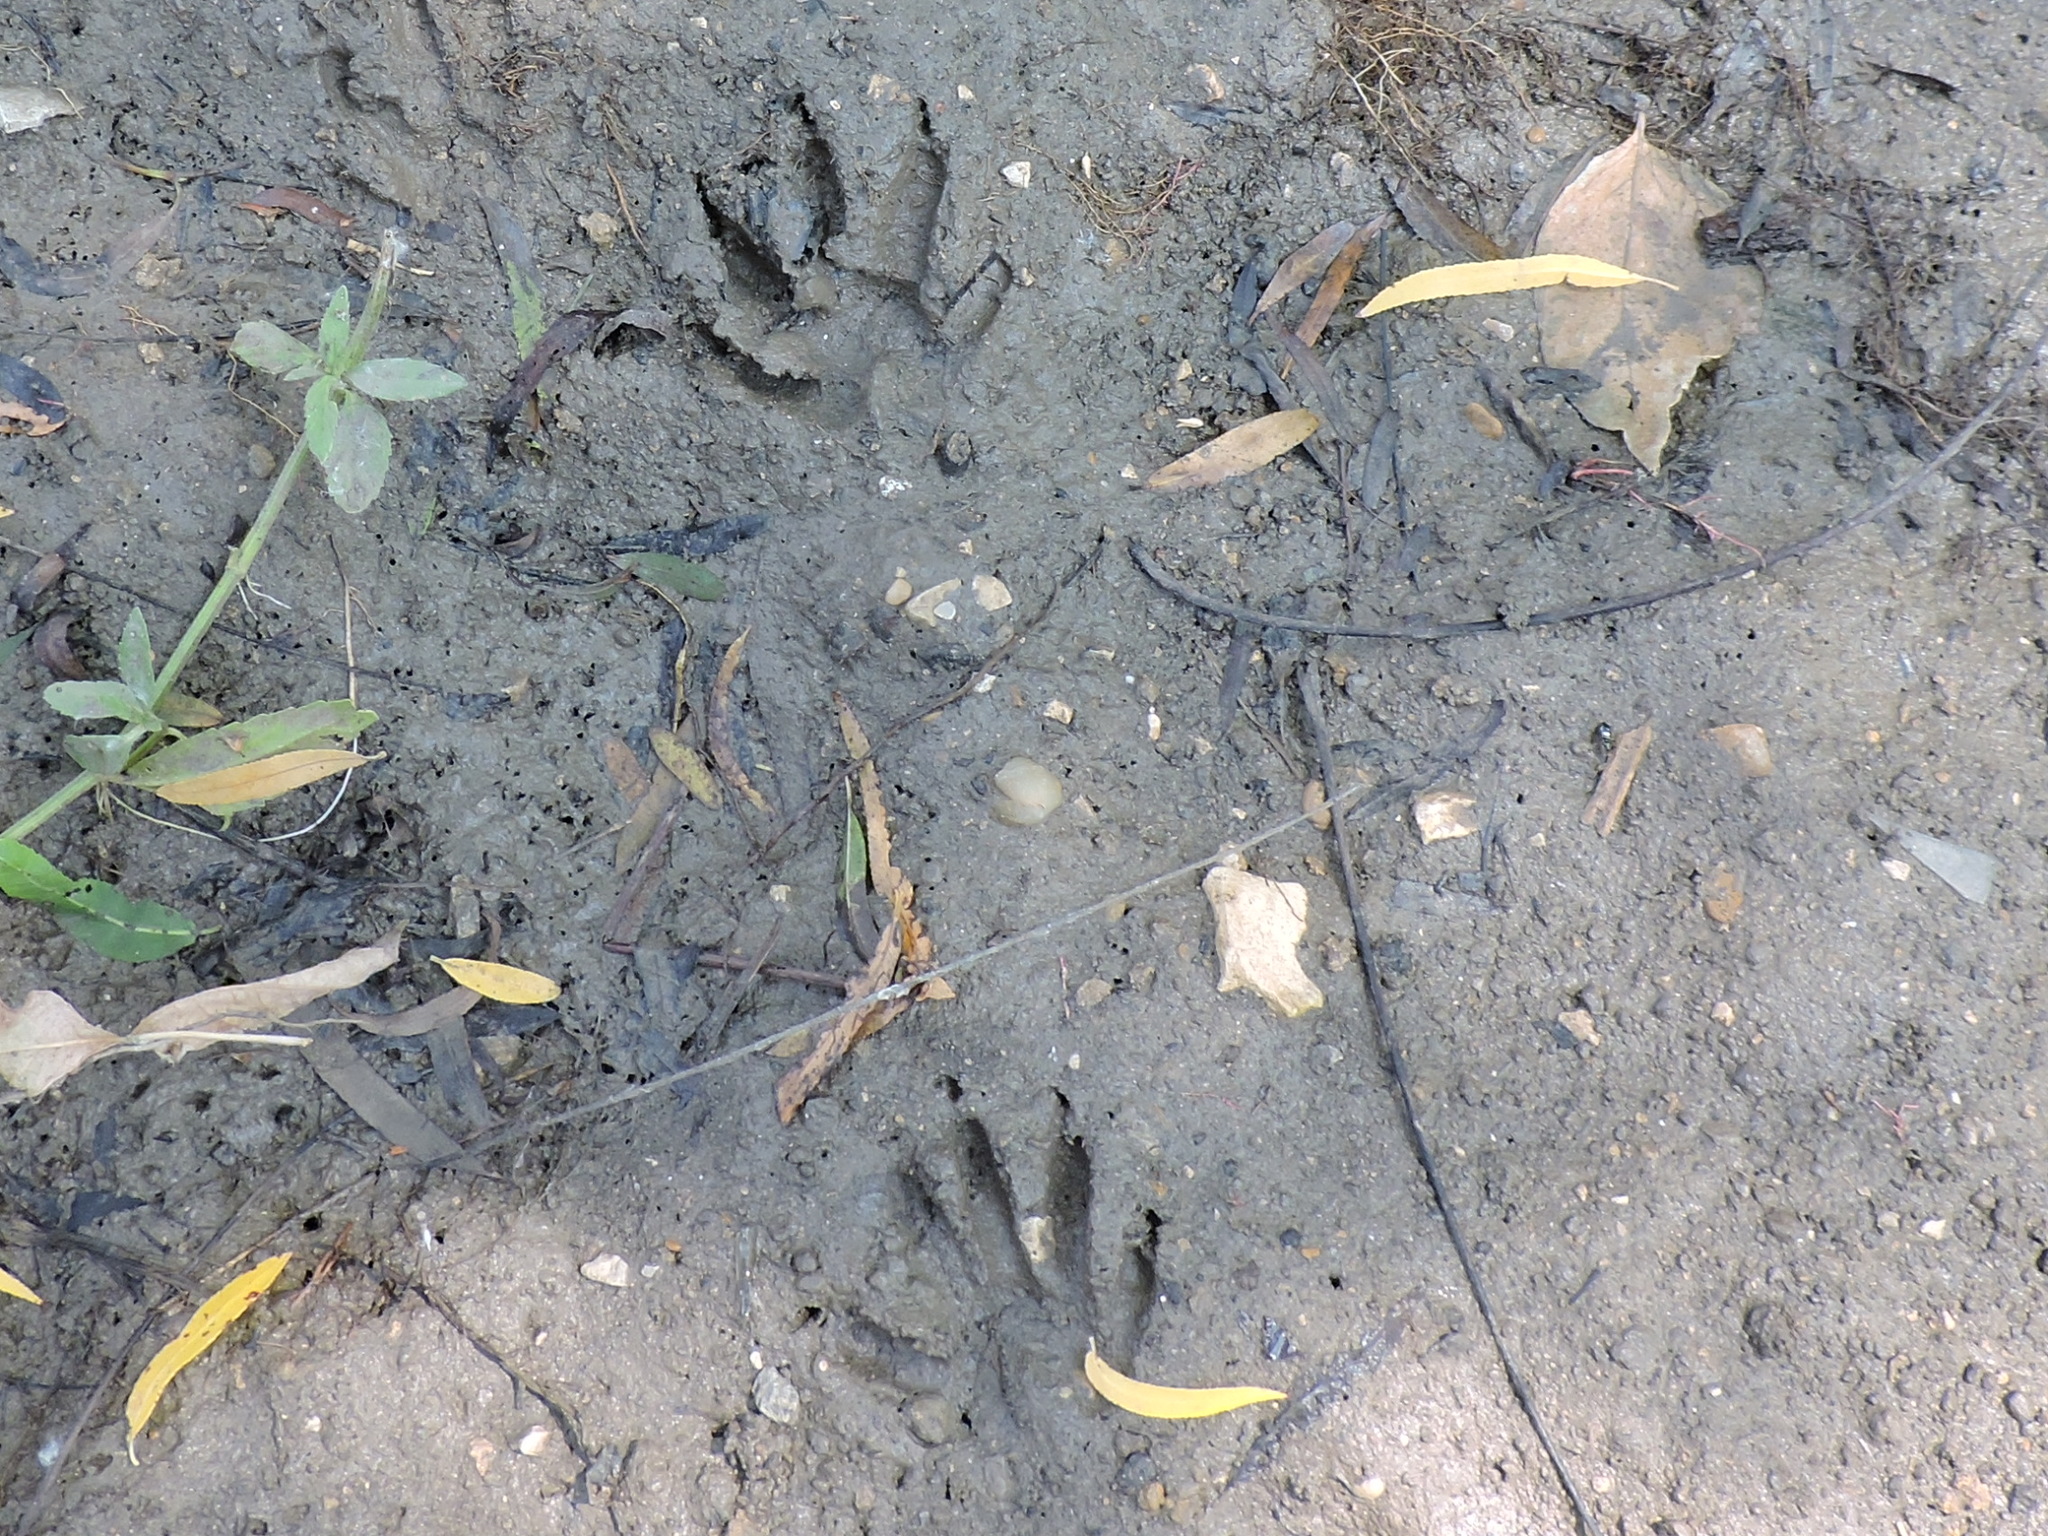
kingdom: Animalia
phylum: Chordata
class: Mammalia
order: Carnivora
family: Procyonidae
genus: Procyon
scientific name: Procyon lotor
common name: Raccoon
